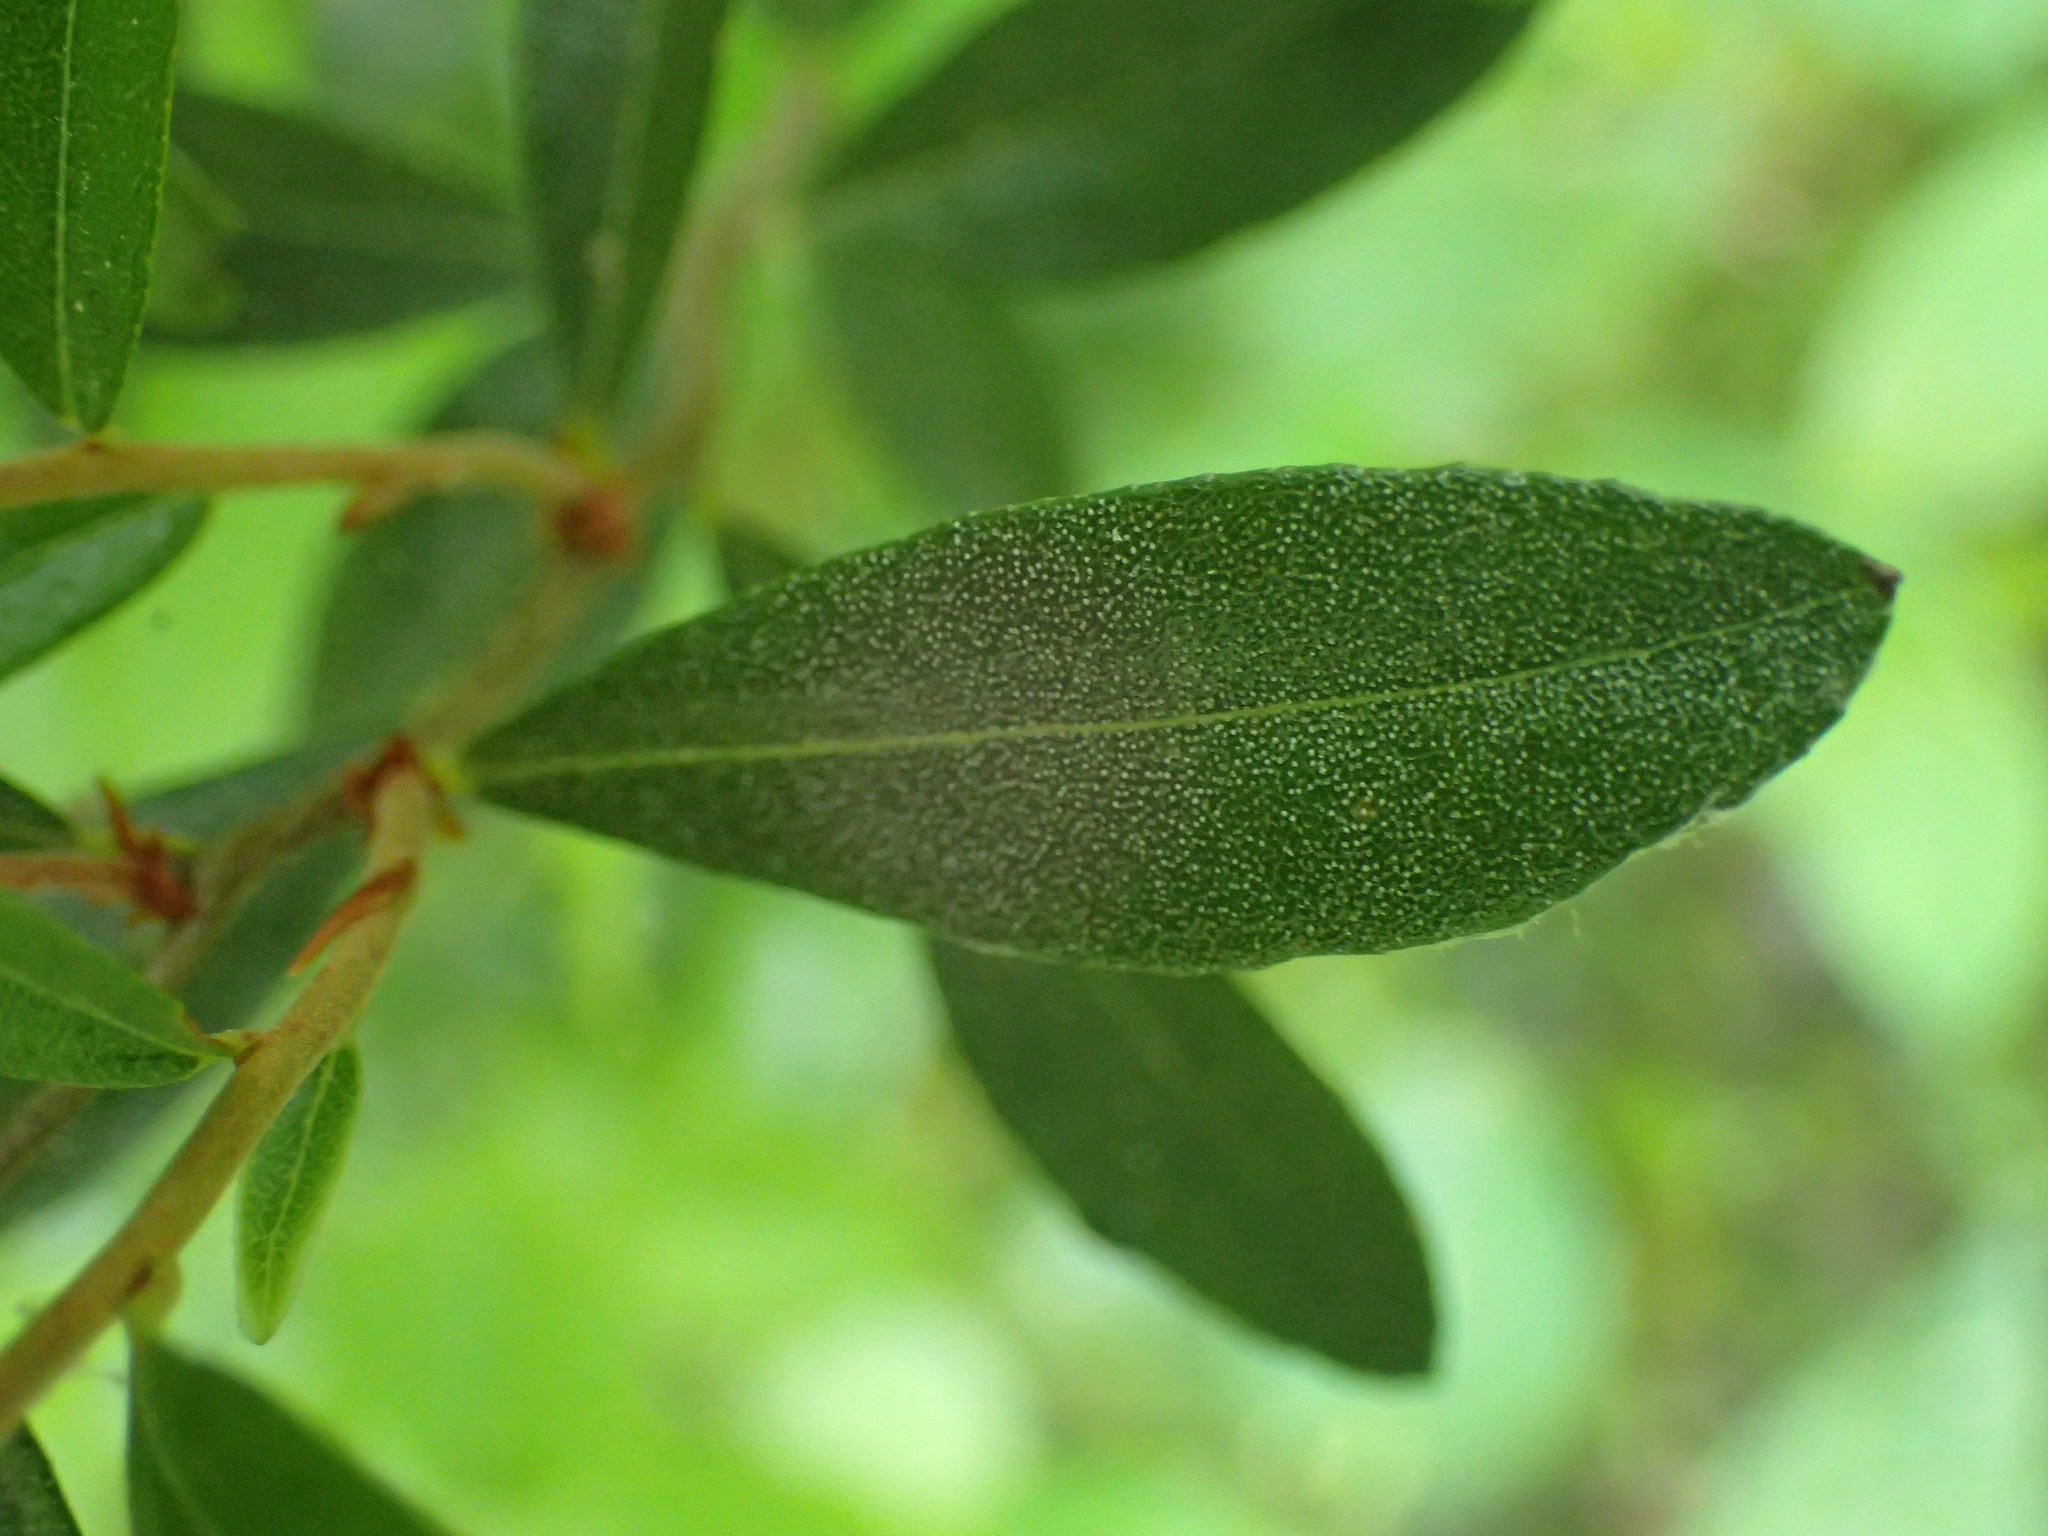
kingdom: Plantae
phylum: Tracheophyta
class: Magnoliopsida
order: Ericales
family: Ericaceae
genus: Chamaedaphne
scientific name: Chamaedaphne calyculata
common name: Leatherleaf
